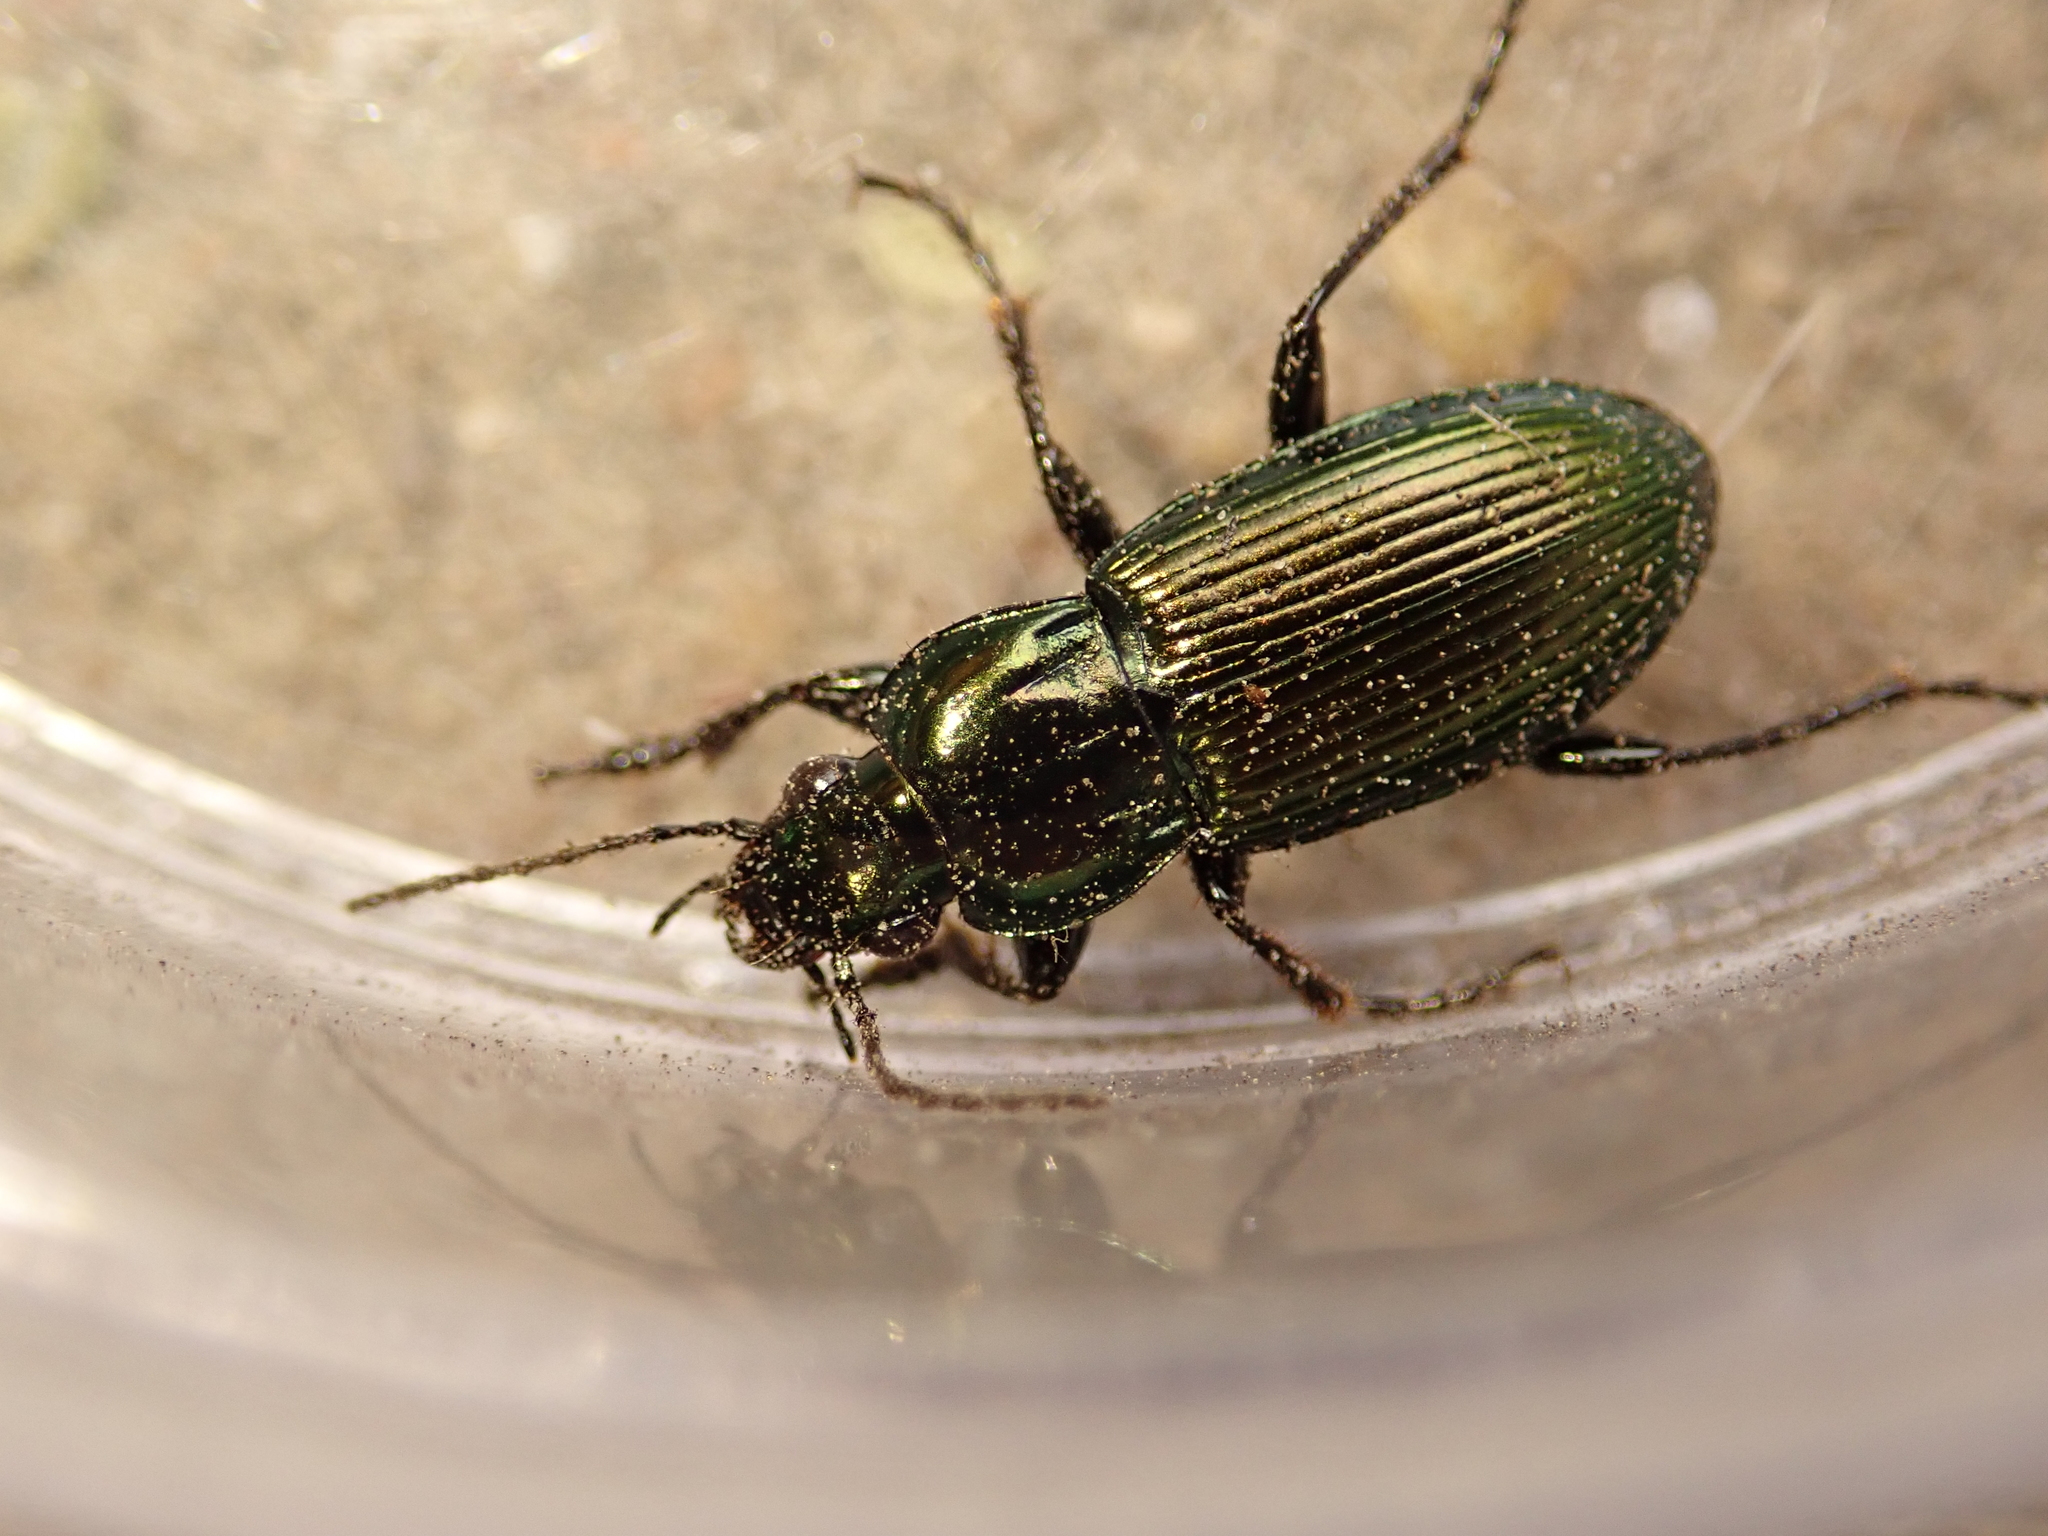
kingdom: Animalia
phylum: Arthropoda
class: Insecta
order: Coleoptera
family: Carabidae
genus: Poecilus
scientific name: Poecilus lepidus
